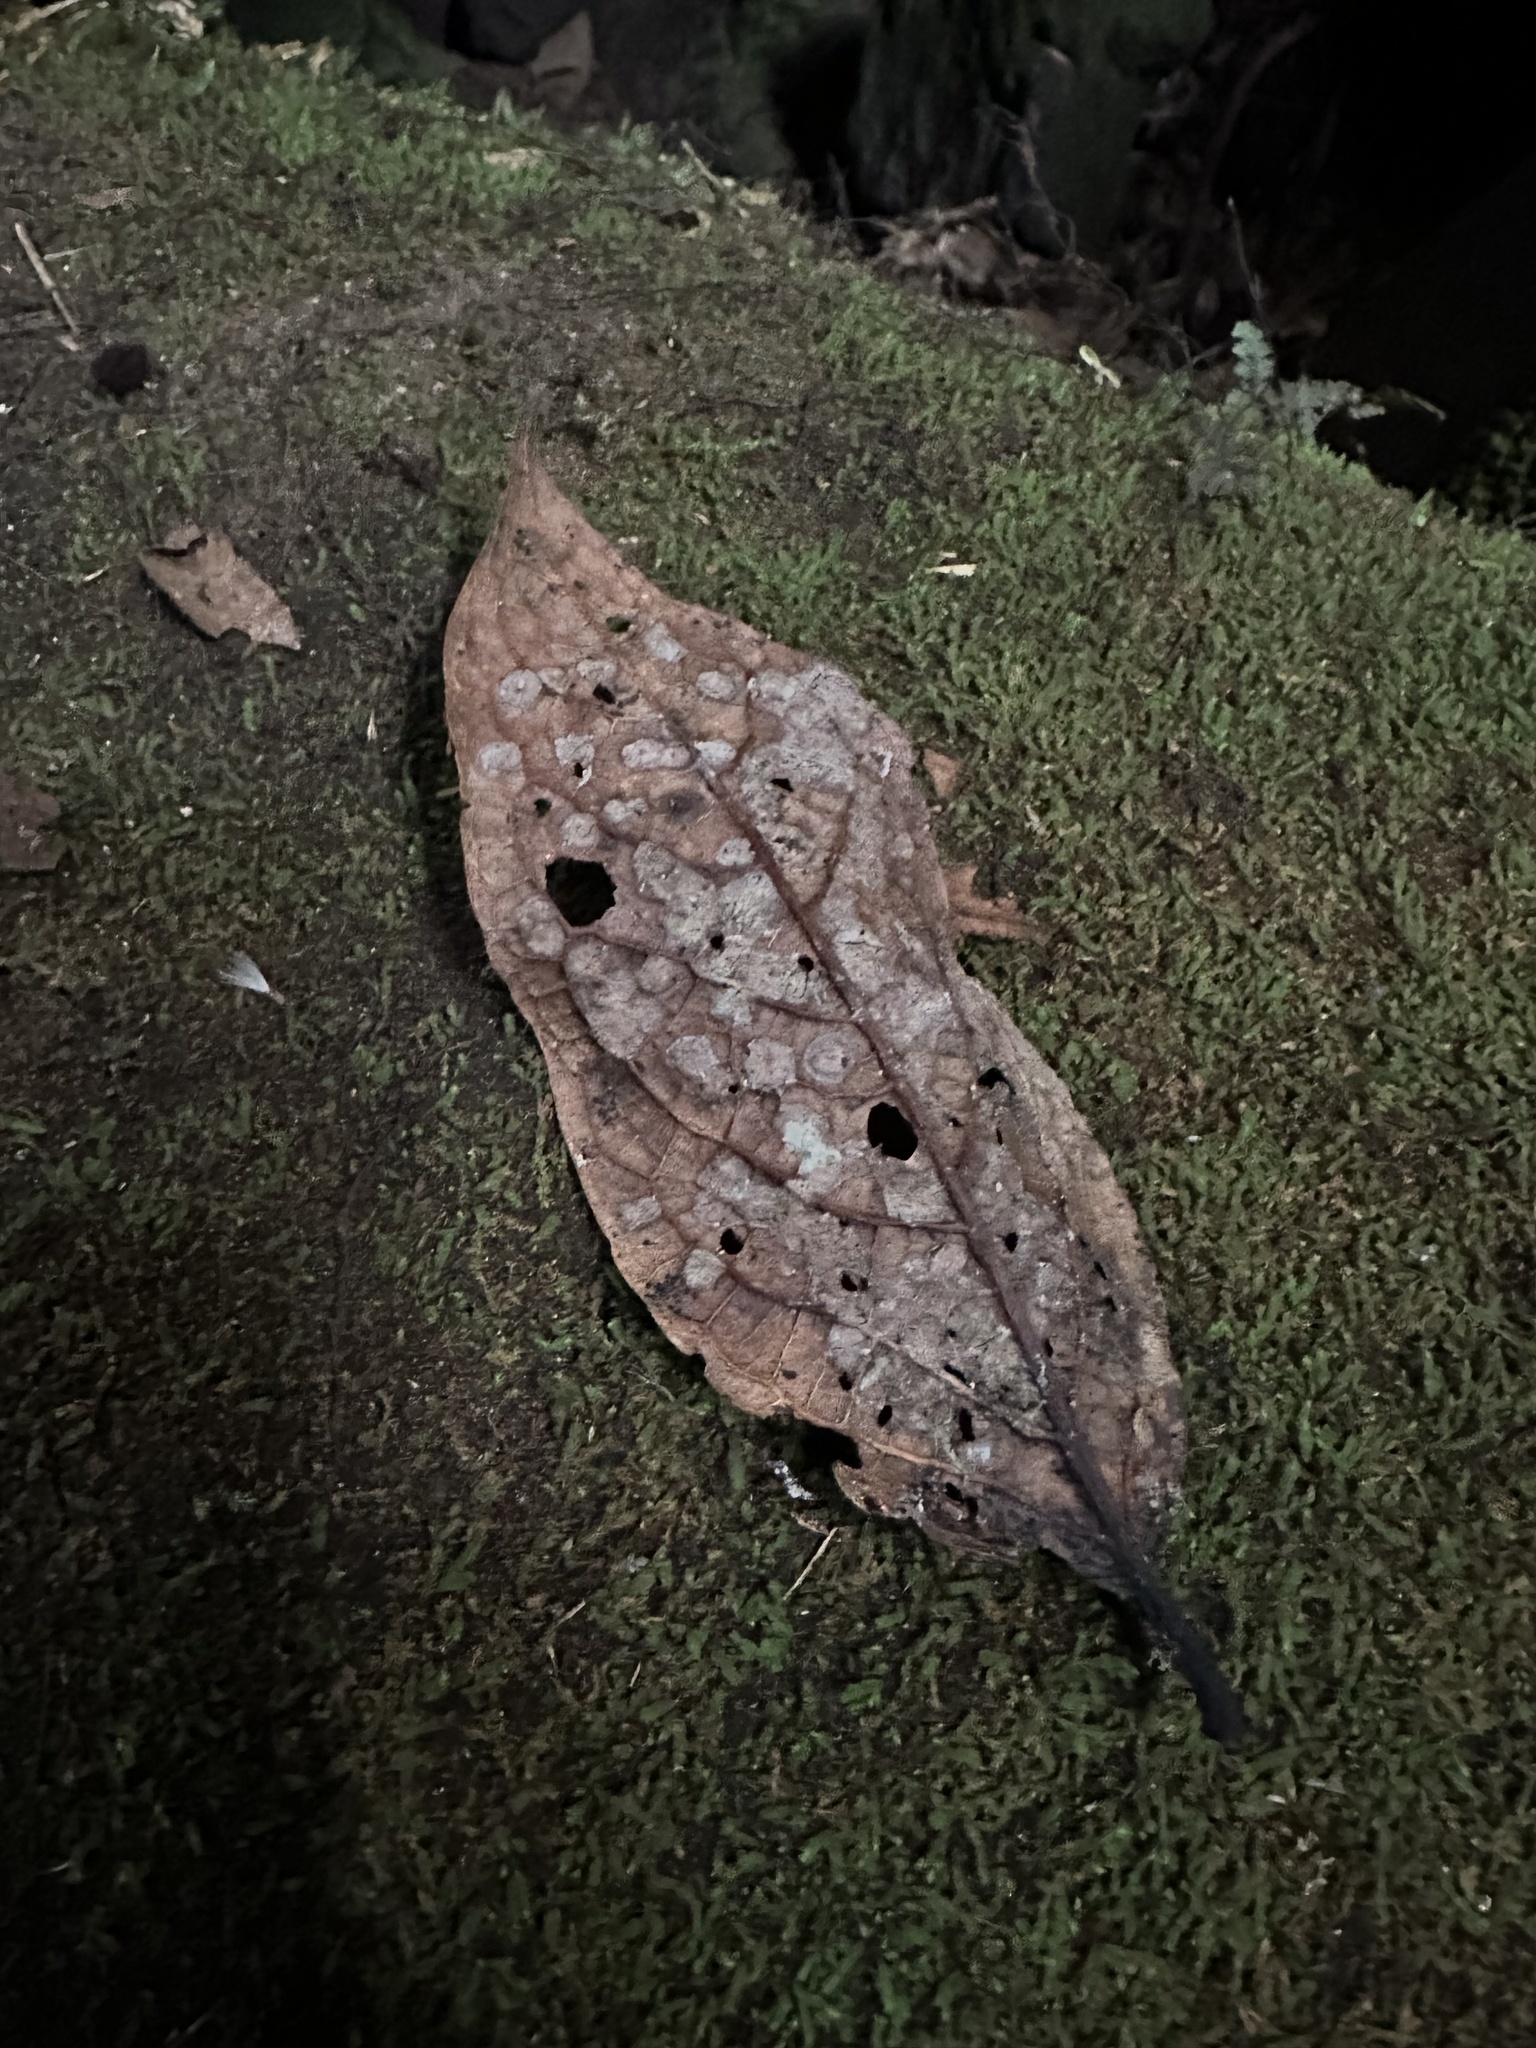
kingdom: Plantae
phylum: Tracheophyta
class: Magnoliopsida
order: Laurales
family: Lauraceae
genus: Ocotea
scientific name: Ocotea pedicellata
